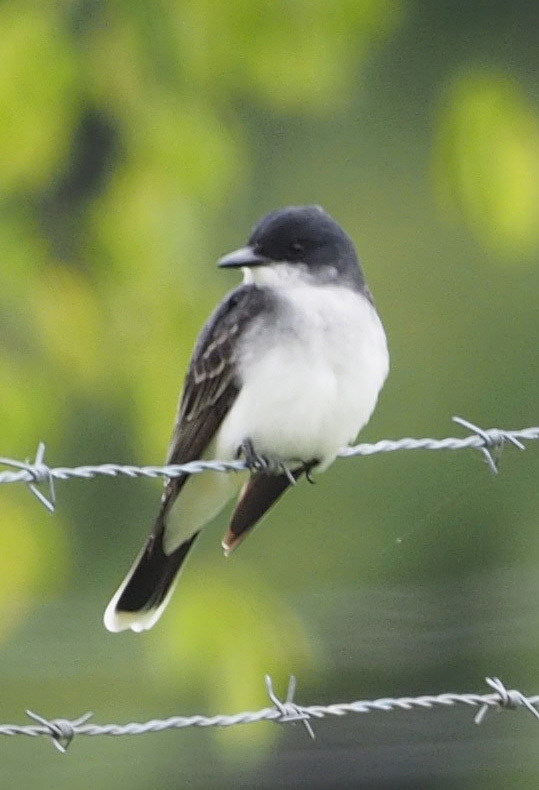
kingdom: Animalia
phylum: Chordata
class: Aves
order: Passeriformes
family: Tyrannidae
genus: Tyrannus
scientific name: Tyrannus tyrannus
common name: Eastern kingbird
